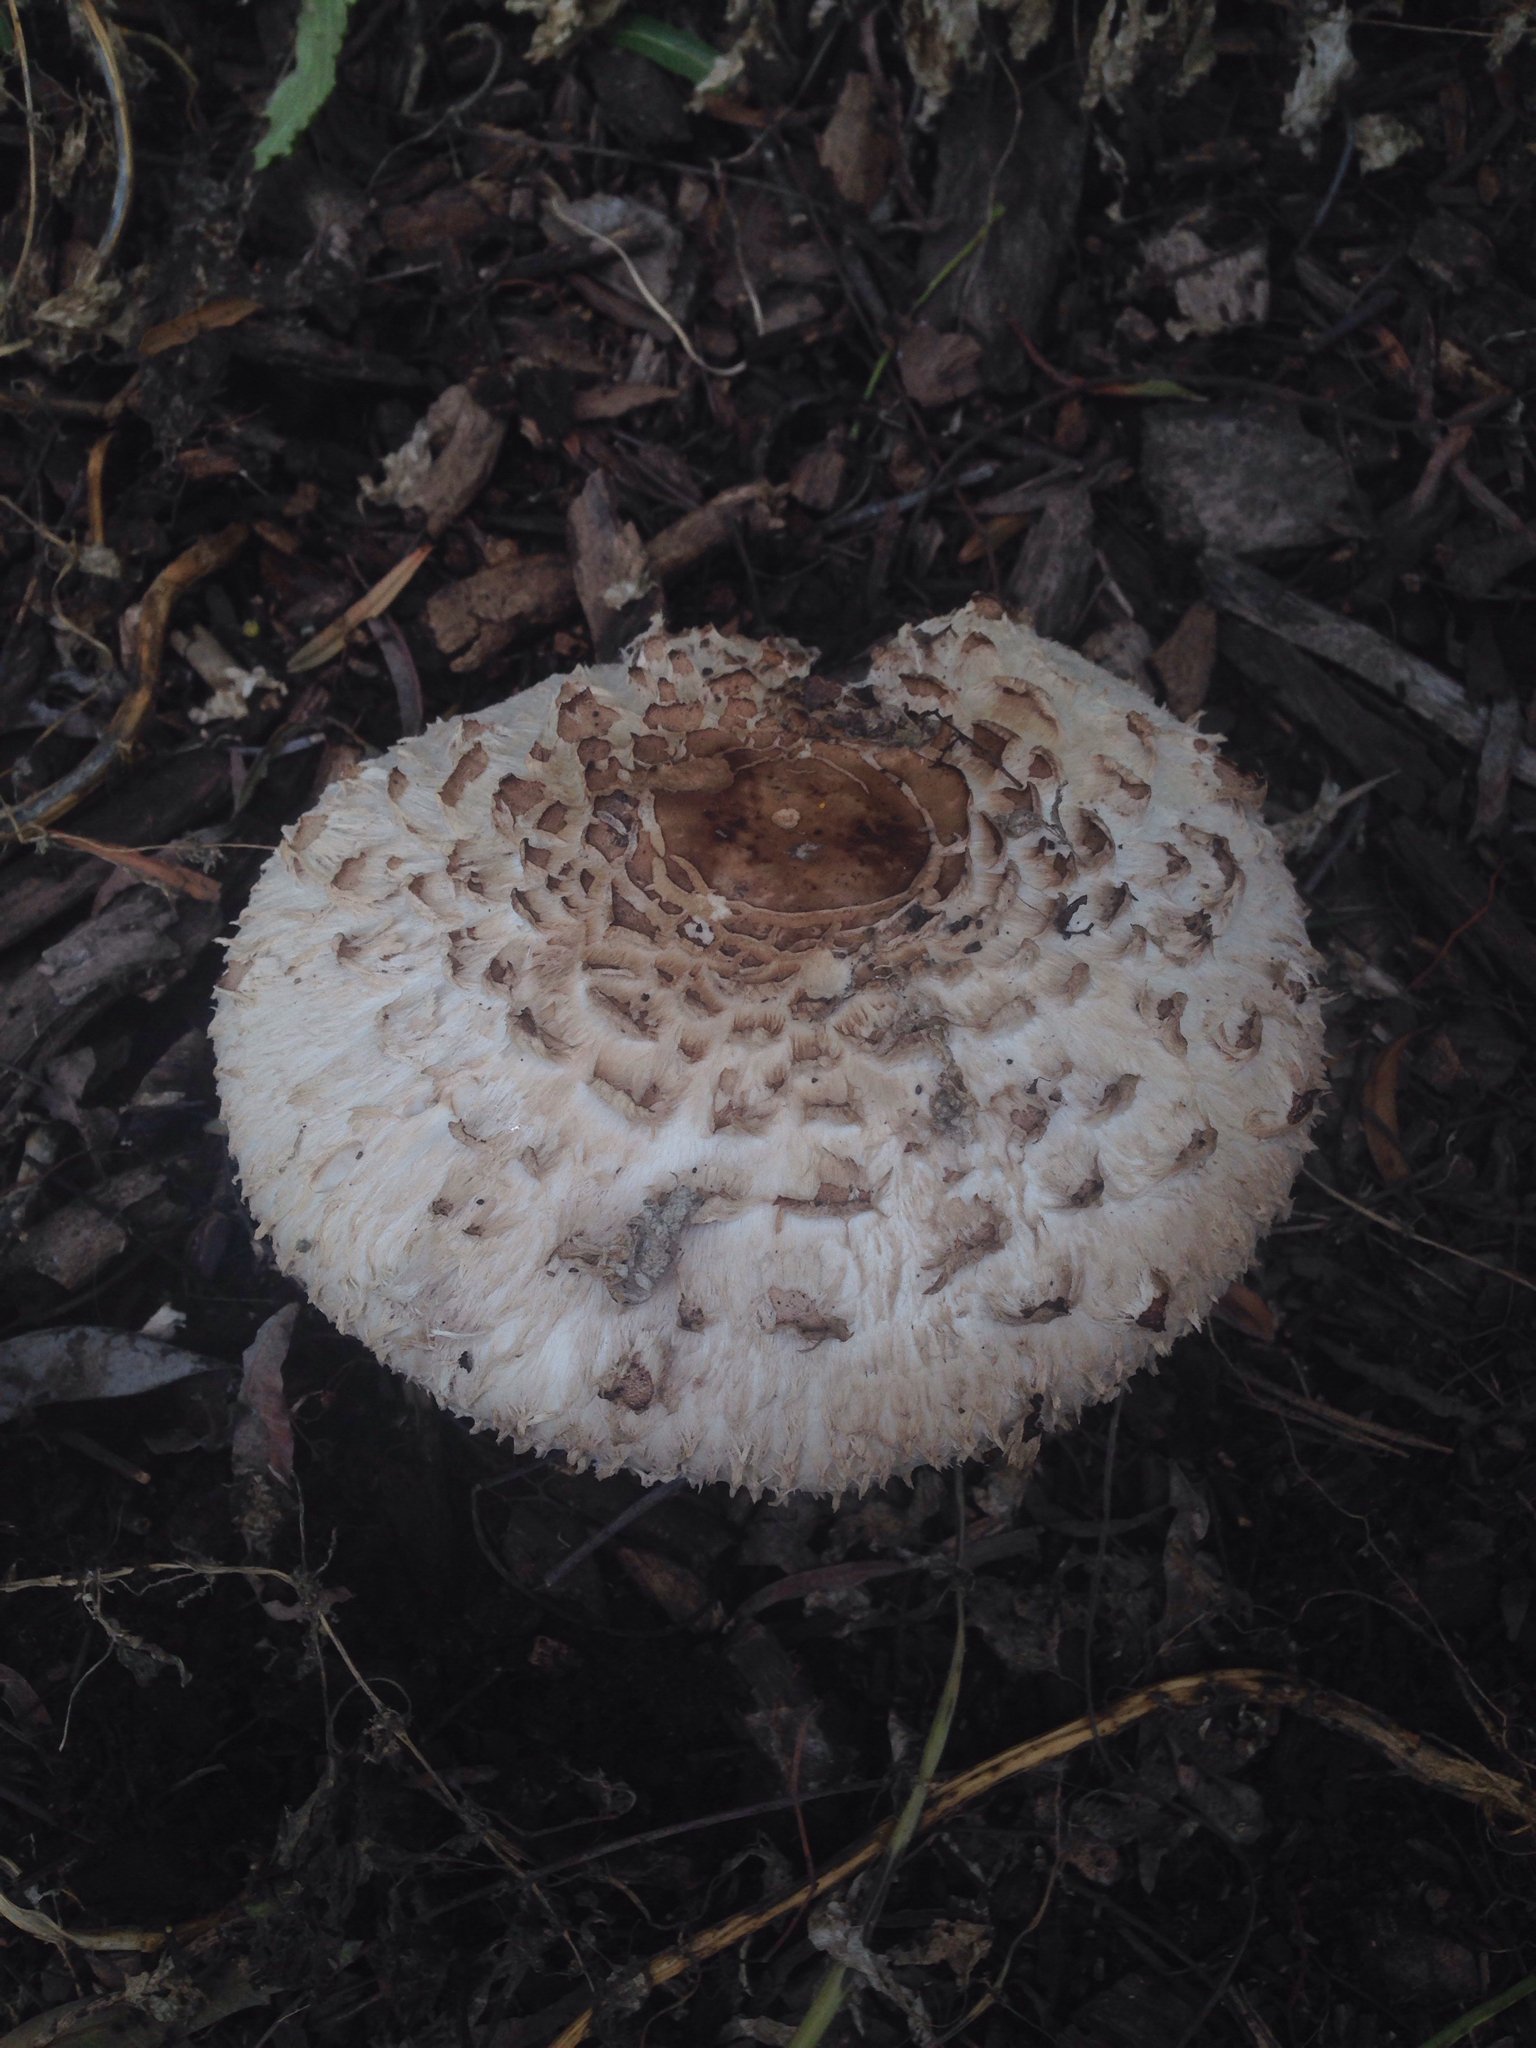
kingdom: Fungi
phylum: Basidiomycota
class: Agaricomycetes
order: Agaricales
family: Agaricaceae
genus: Chlorophyllum
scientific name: Chlorophyllum brunneum
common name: Brown parasol
